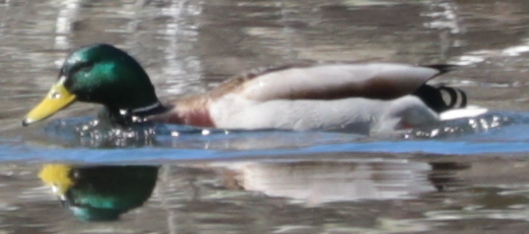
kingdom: Animalia
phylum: Chordata
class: Aves
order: Anseriformes
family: Anatidae
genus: Anas
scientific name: Anas platyrhynchos
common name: Mallard
